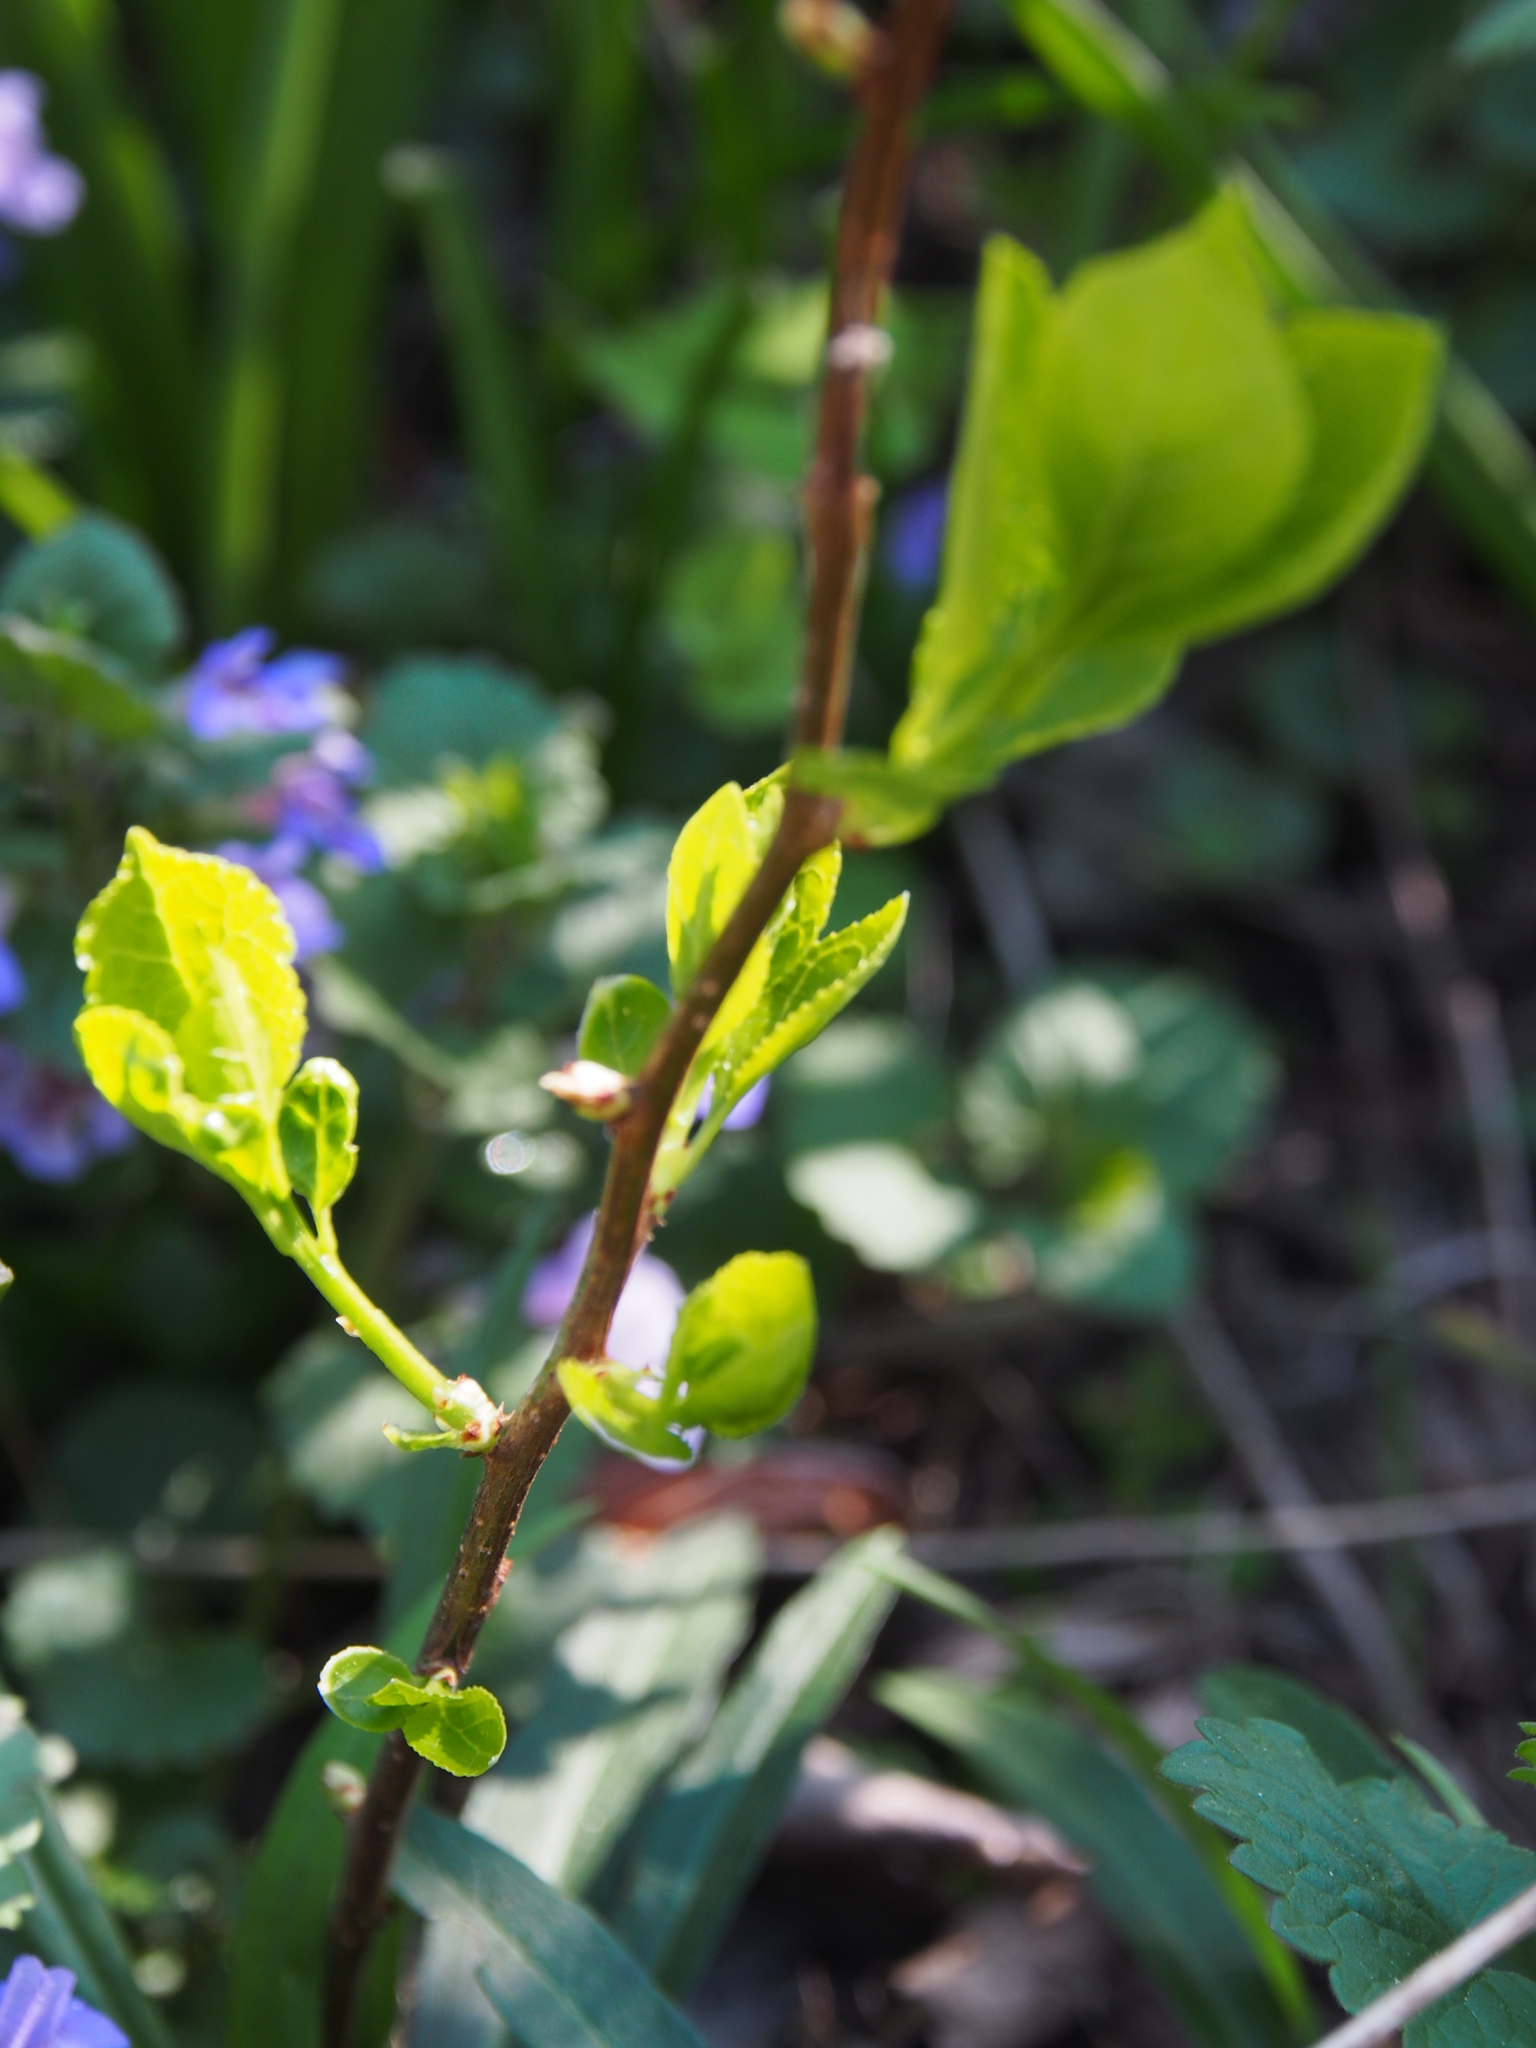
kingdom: Plantae
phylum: Tracheophyta
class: Magnoliopsida
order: Celastrales
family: Celastraceae
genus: Celastrus
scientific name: Celastrus orbiculatus
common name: Oriental bittersweet
